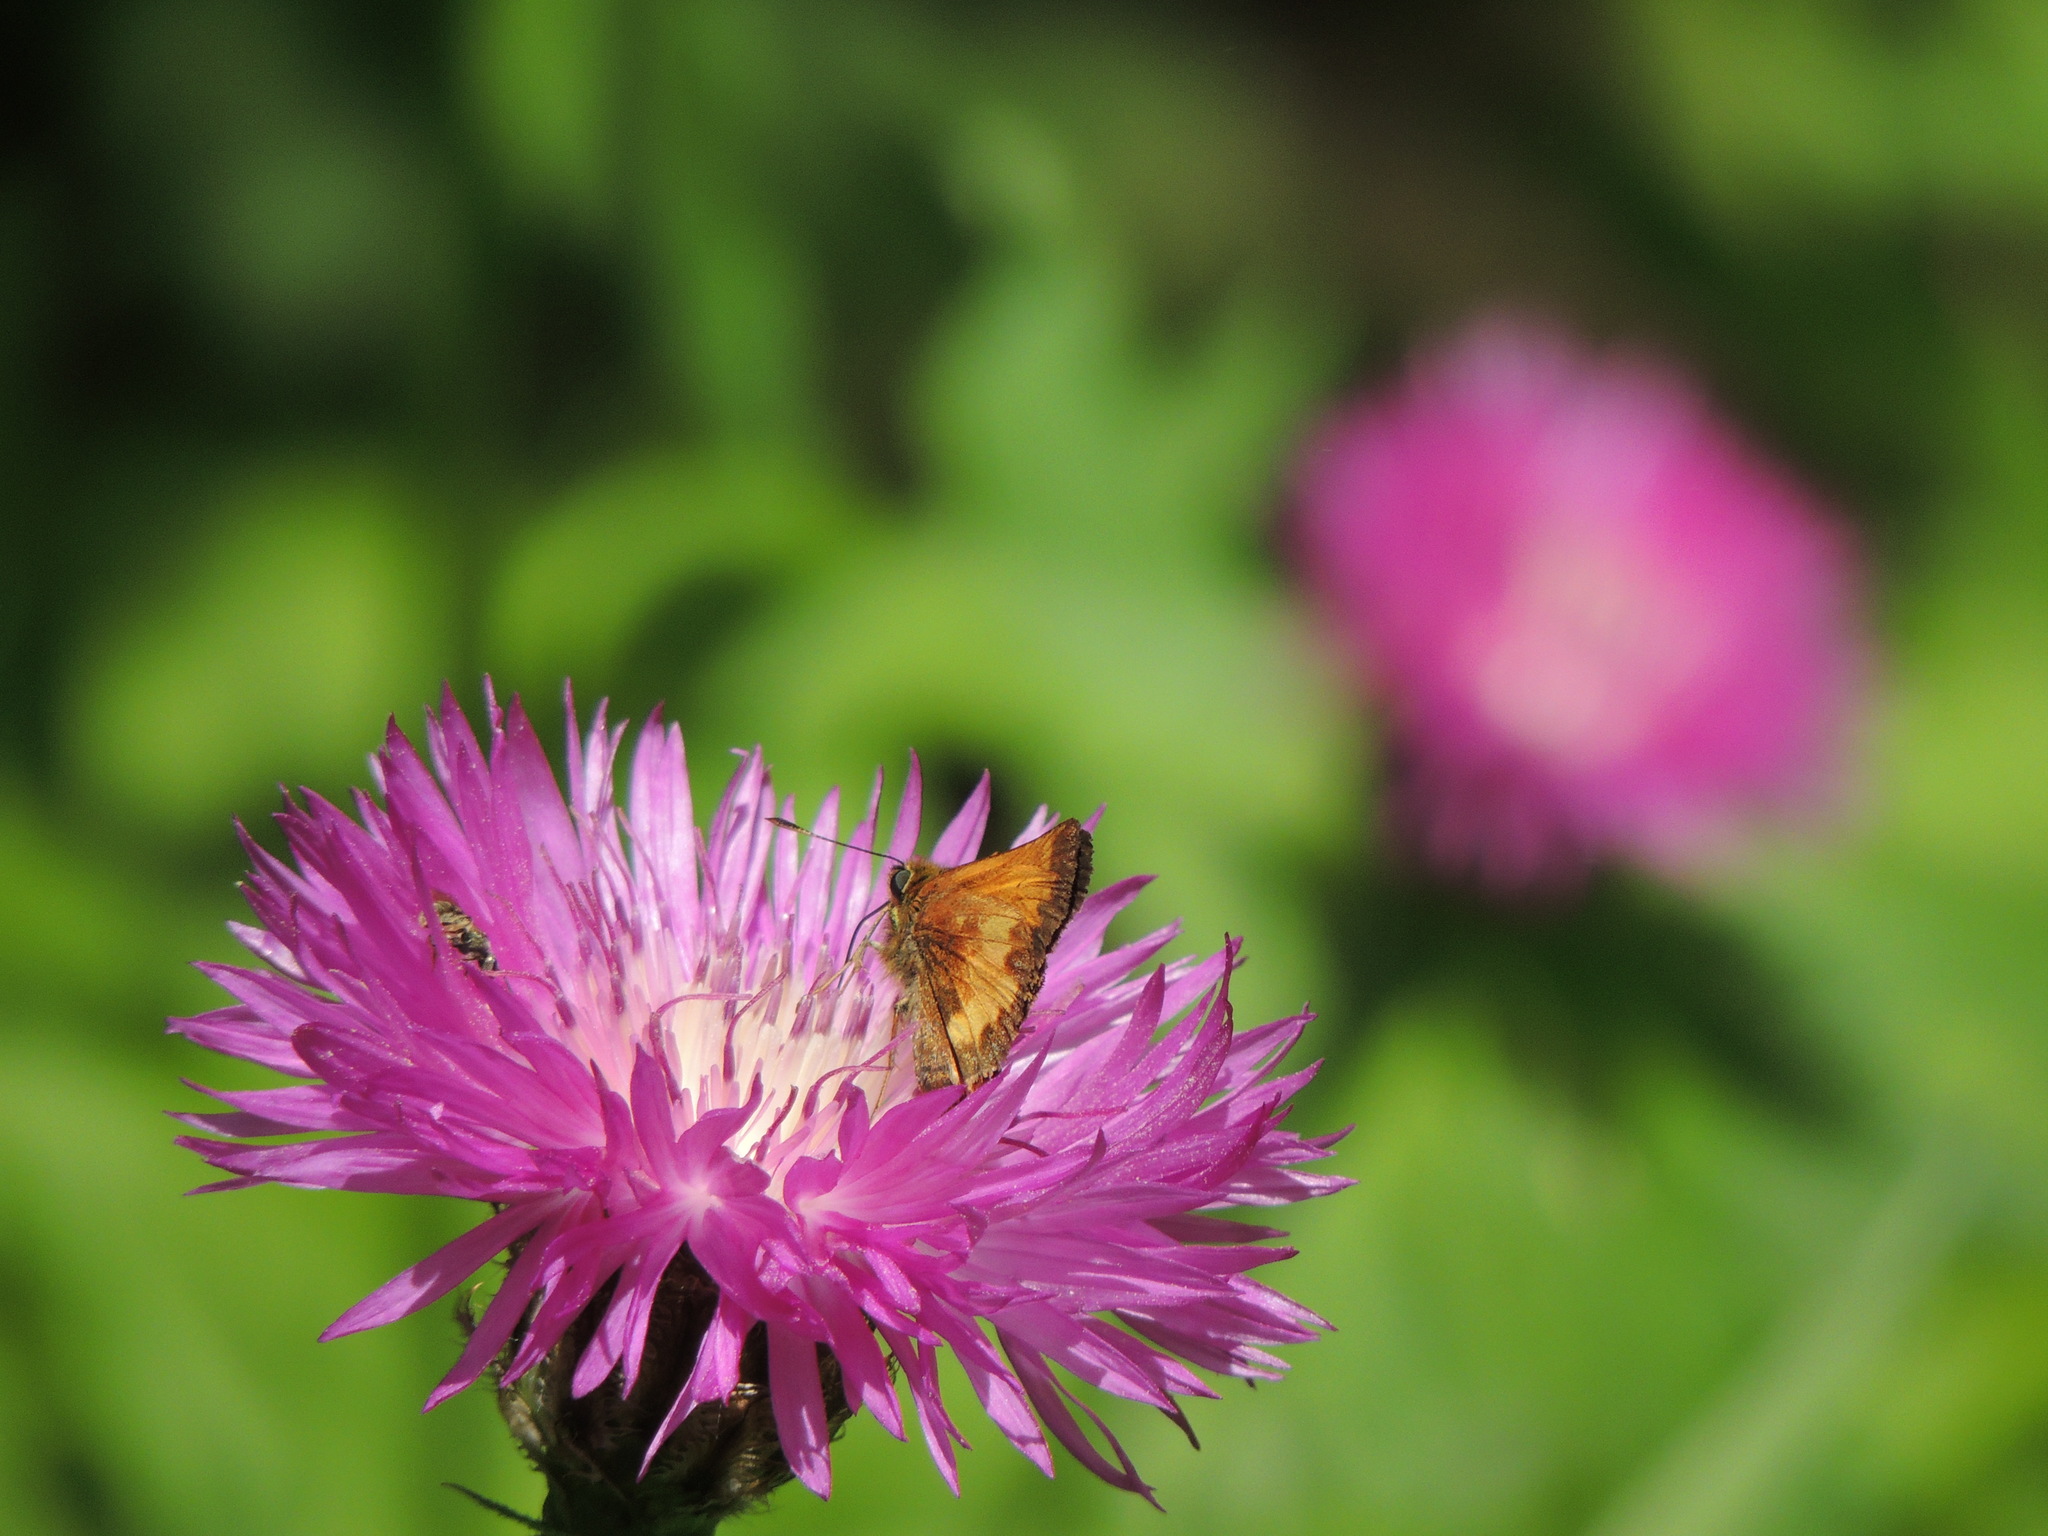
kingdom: Animalia
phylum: Arthropoda
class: Insecta
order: Lepidoptera
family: Hesperiidae
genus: Lon
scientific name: Lon hobomok
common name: Hobomok skipper
